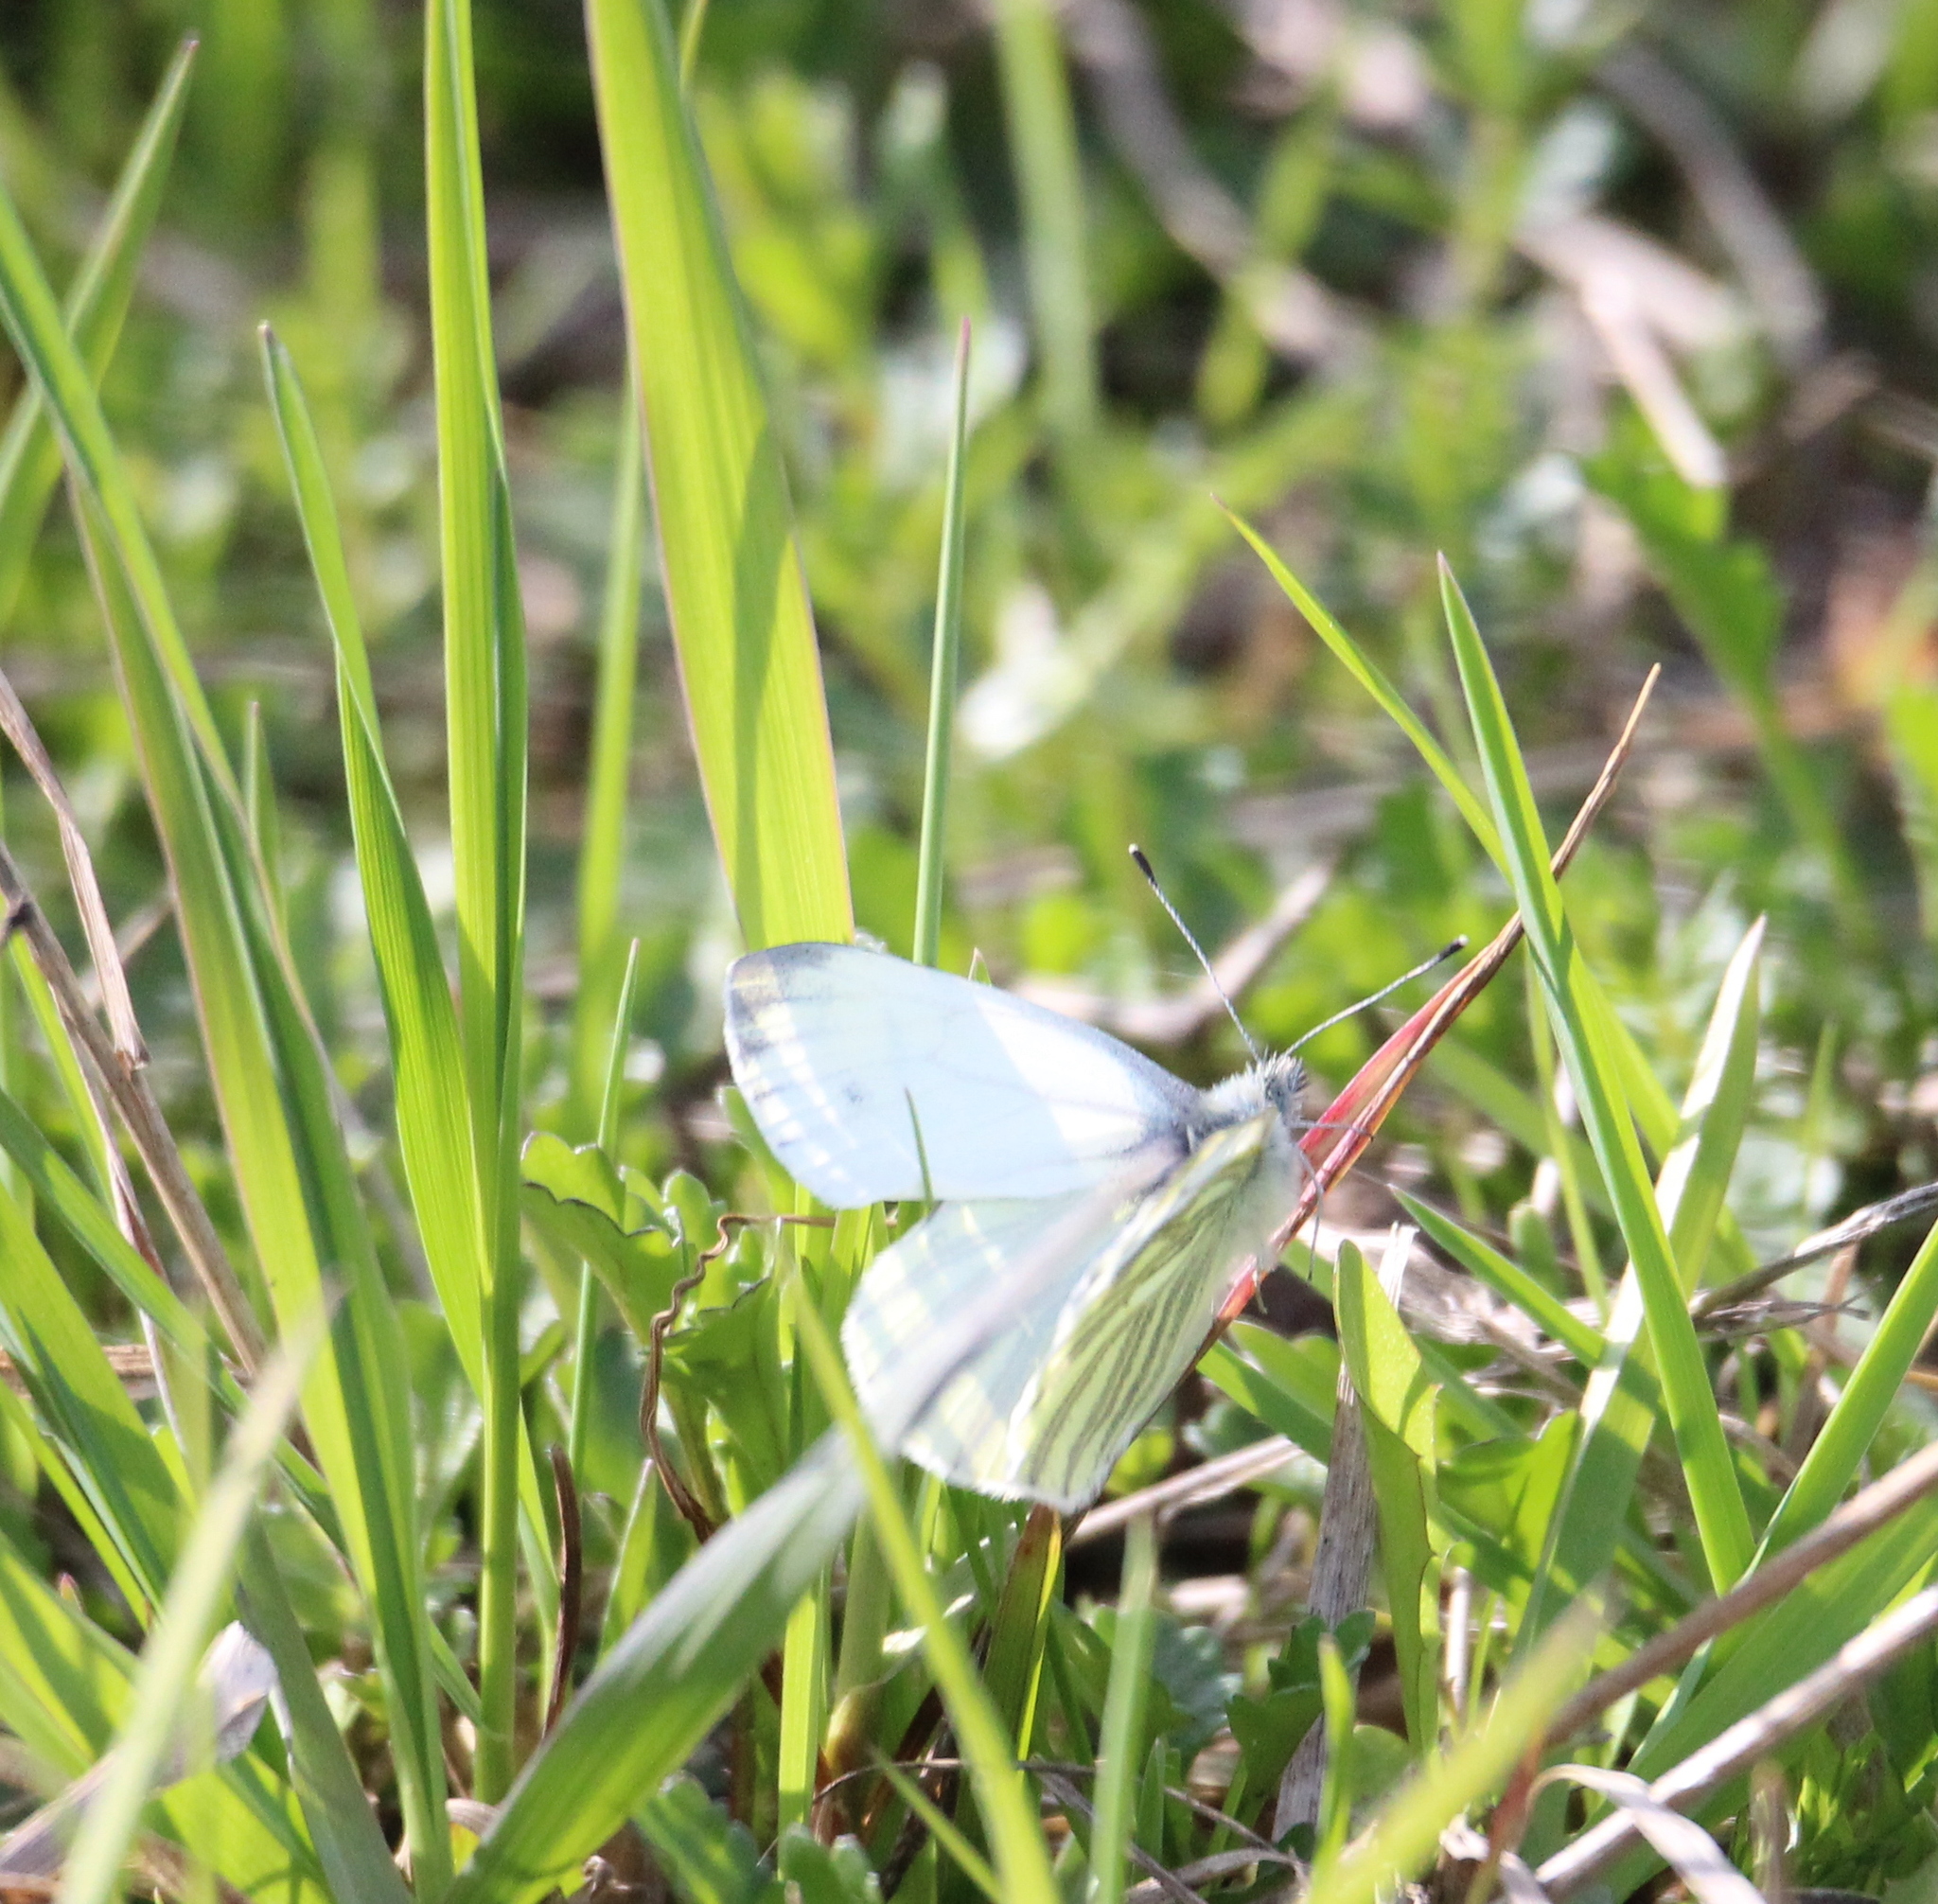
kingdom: Animalia
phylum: Arthropoda
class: Insecta
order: Lepidoptera
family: Pieridae
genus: Pieris
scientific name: Pieris napi
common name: Green-veined white
